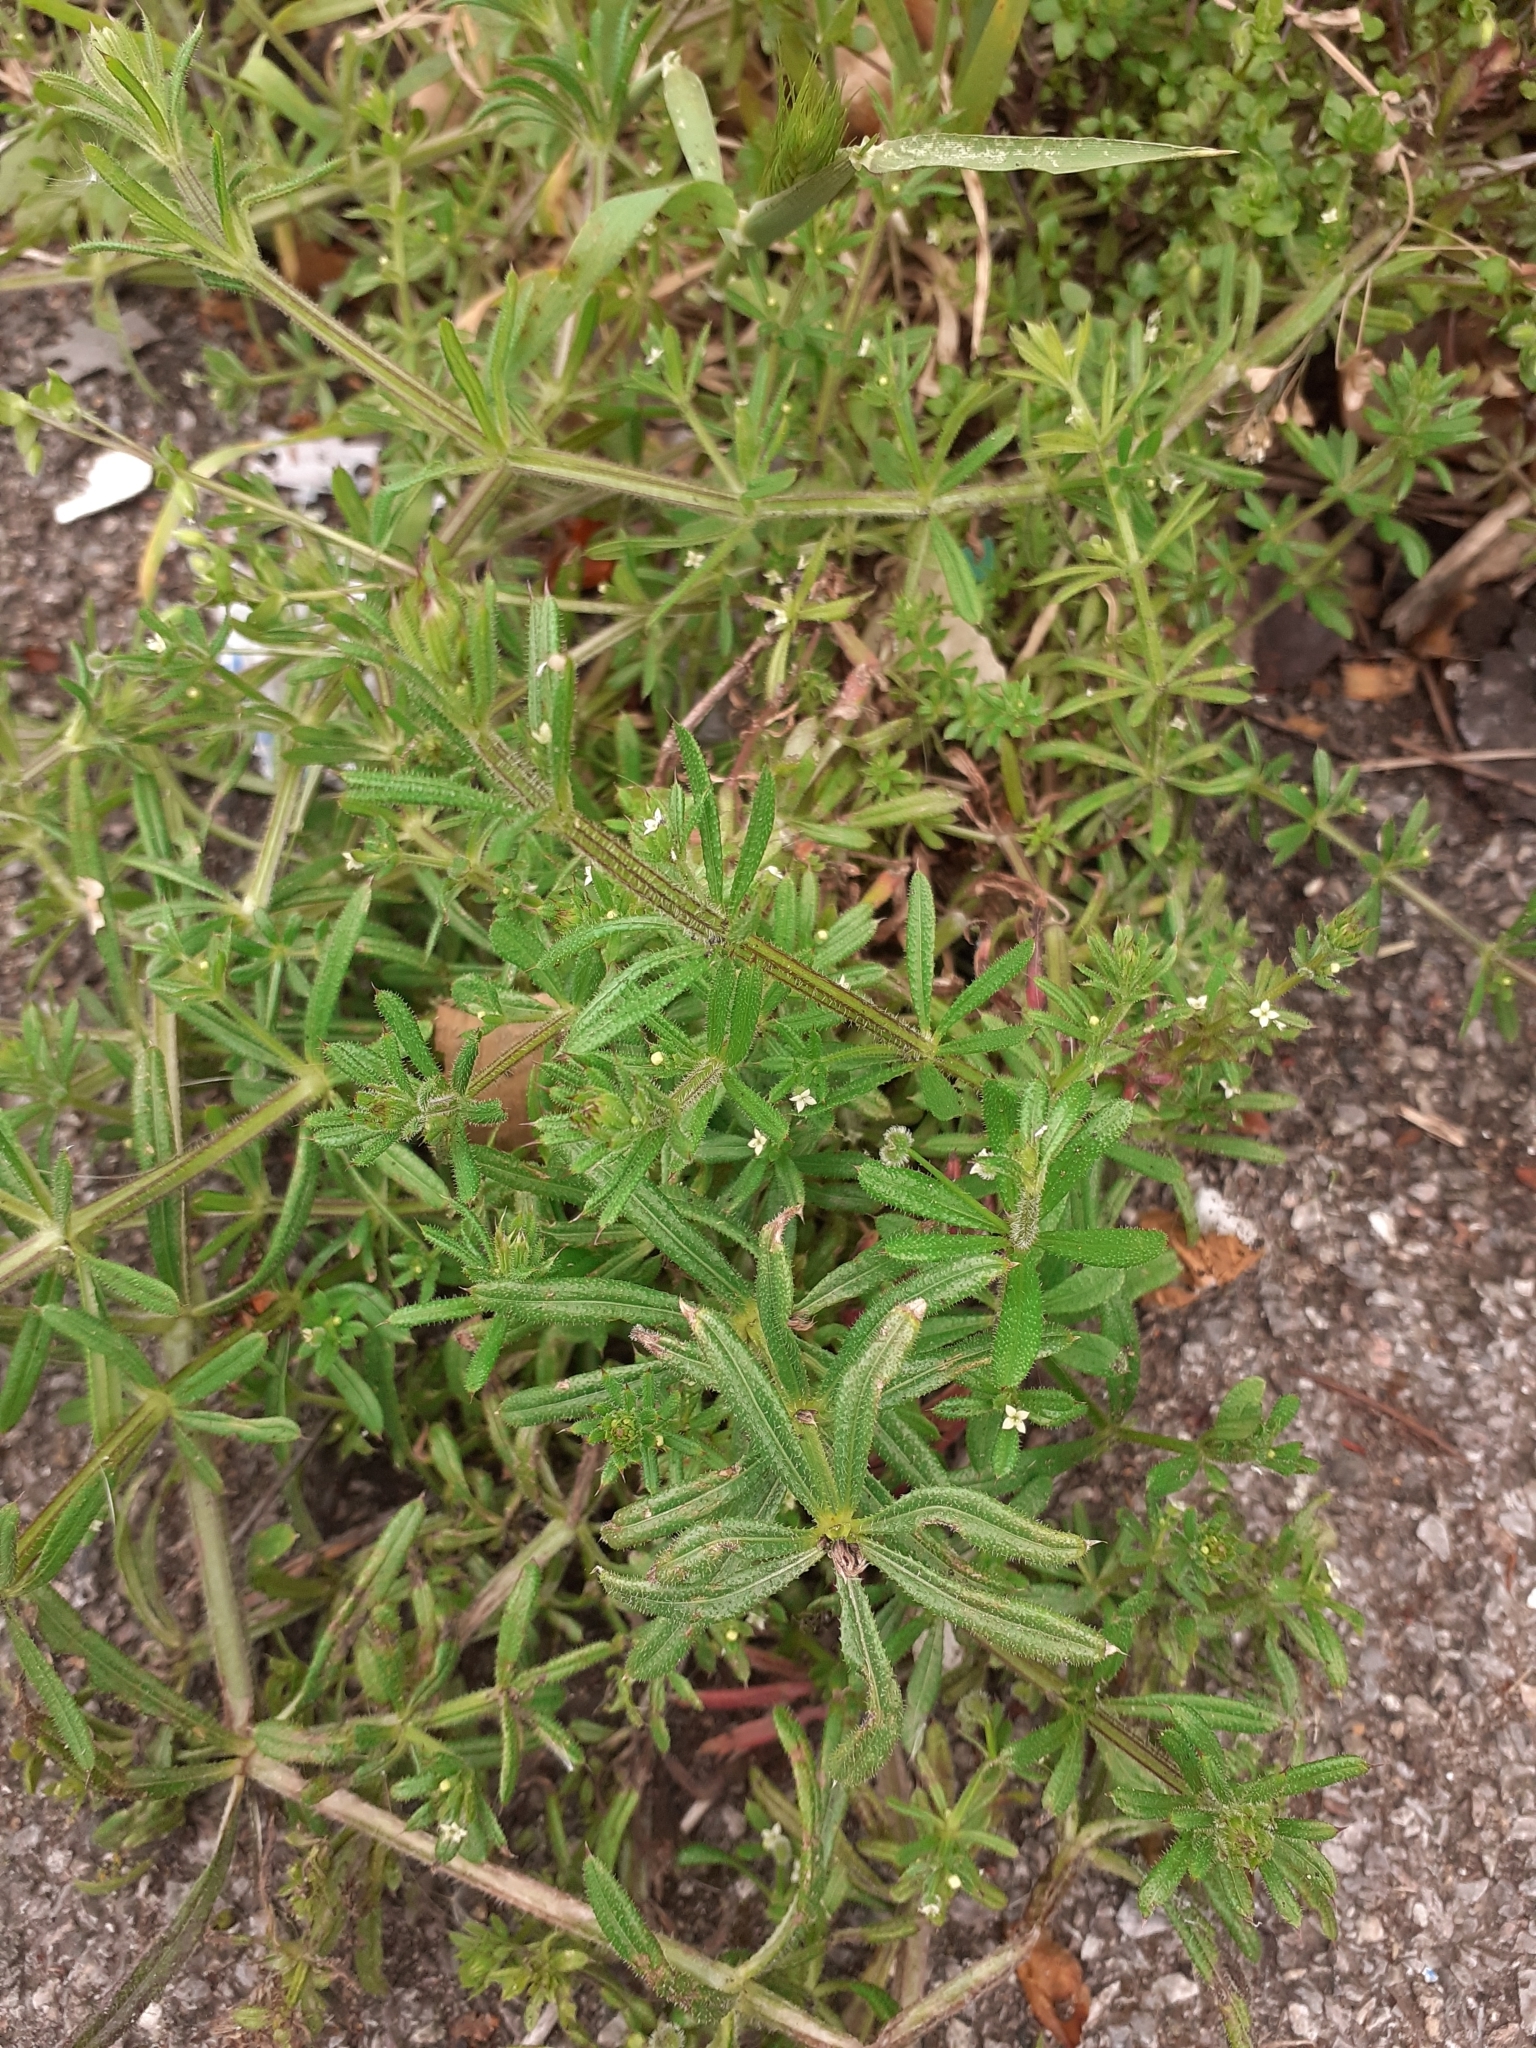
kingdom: Plantae
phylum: Tracheophyta
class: Magnoliopsida
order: Gentianales
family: Rubiaceae
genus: Galium
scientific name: Galium aparine
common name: Cleavers
